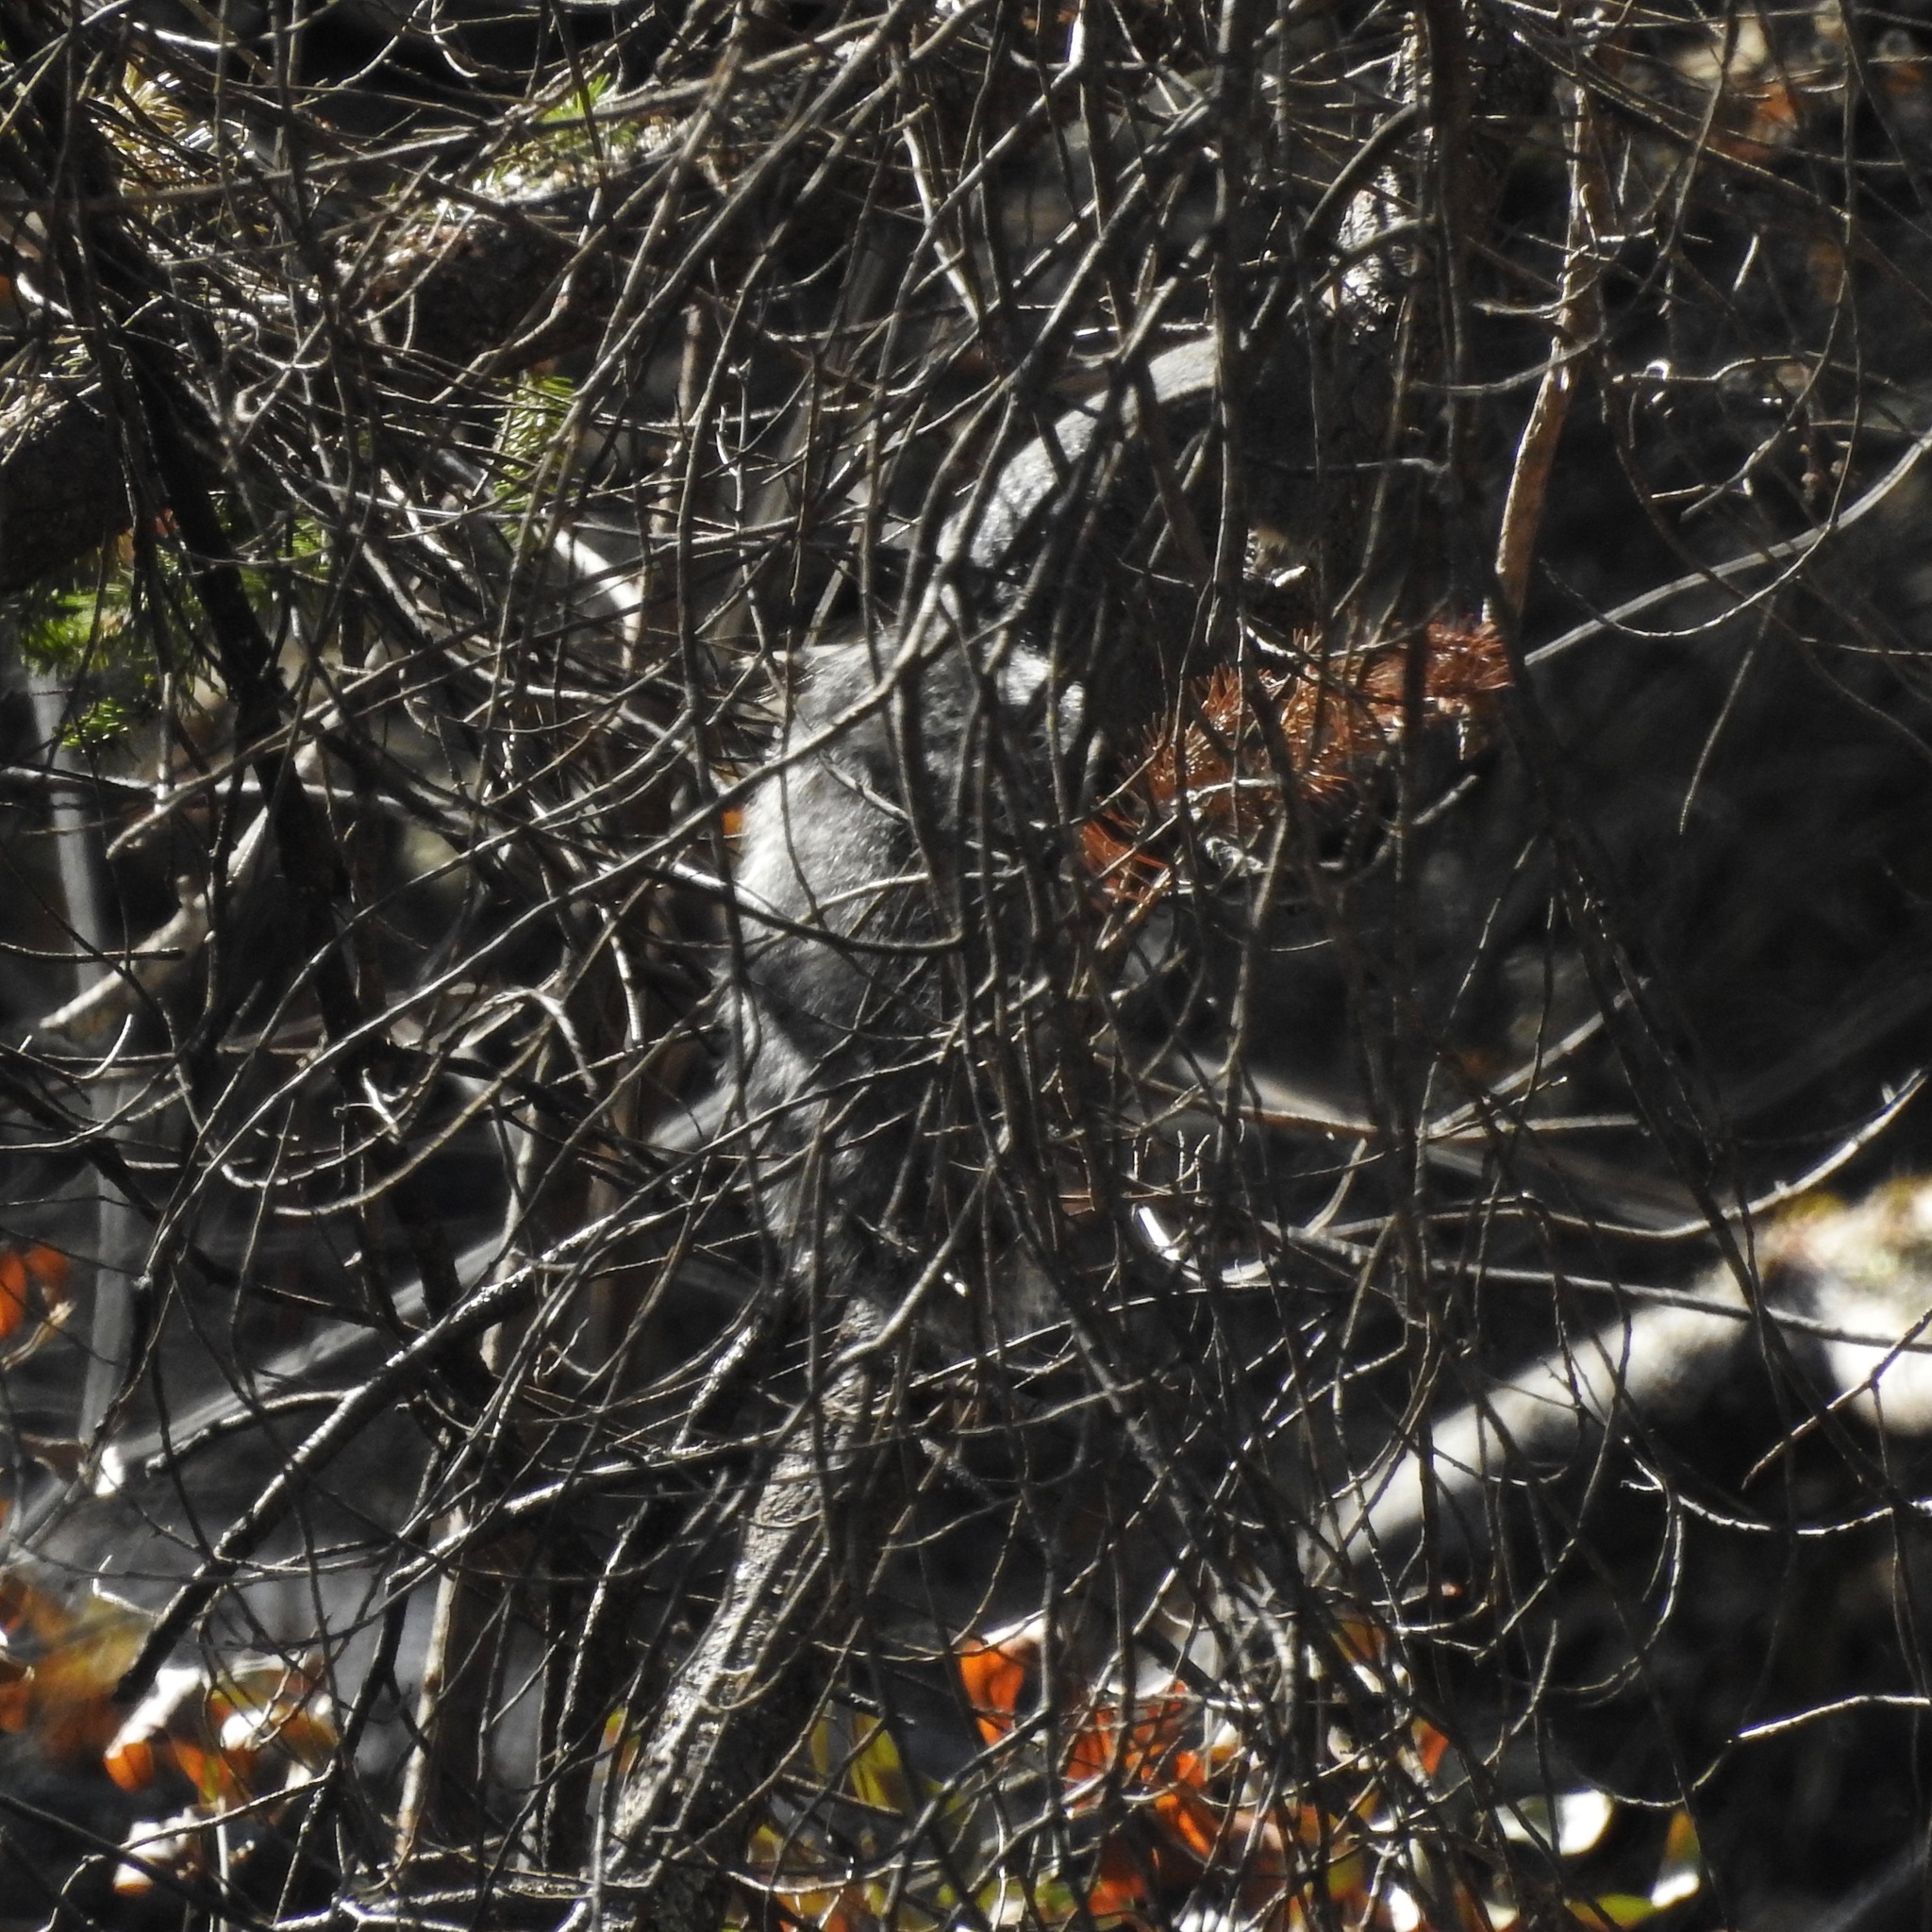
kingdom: Animalia
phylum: Chordata
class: Mammalia
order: Rodentia
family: Sciuridae
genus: Sciurus
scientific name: Sciurus griseus
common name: Western gray squirrel
